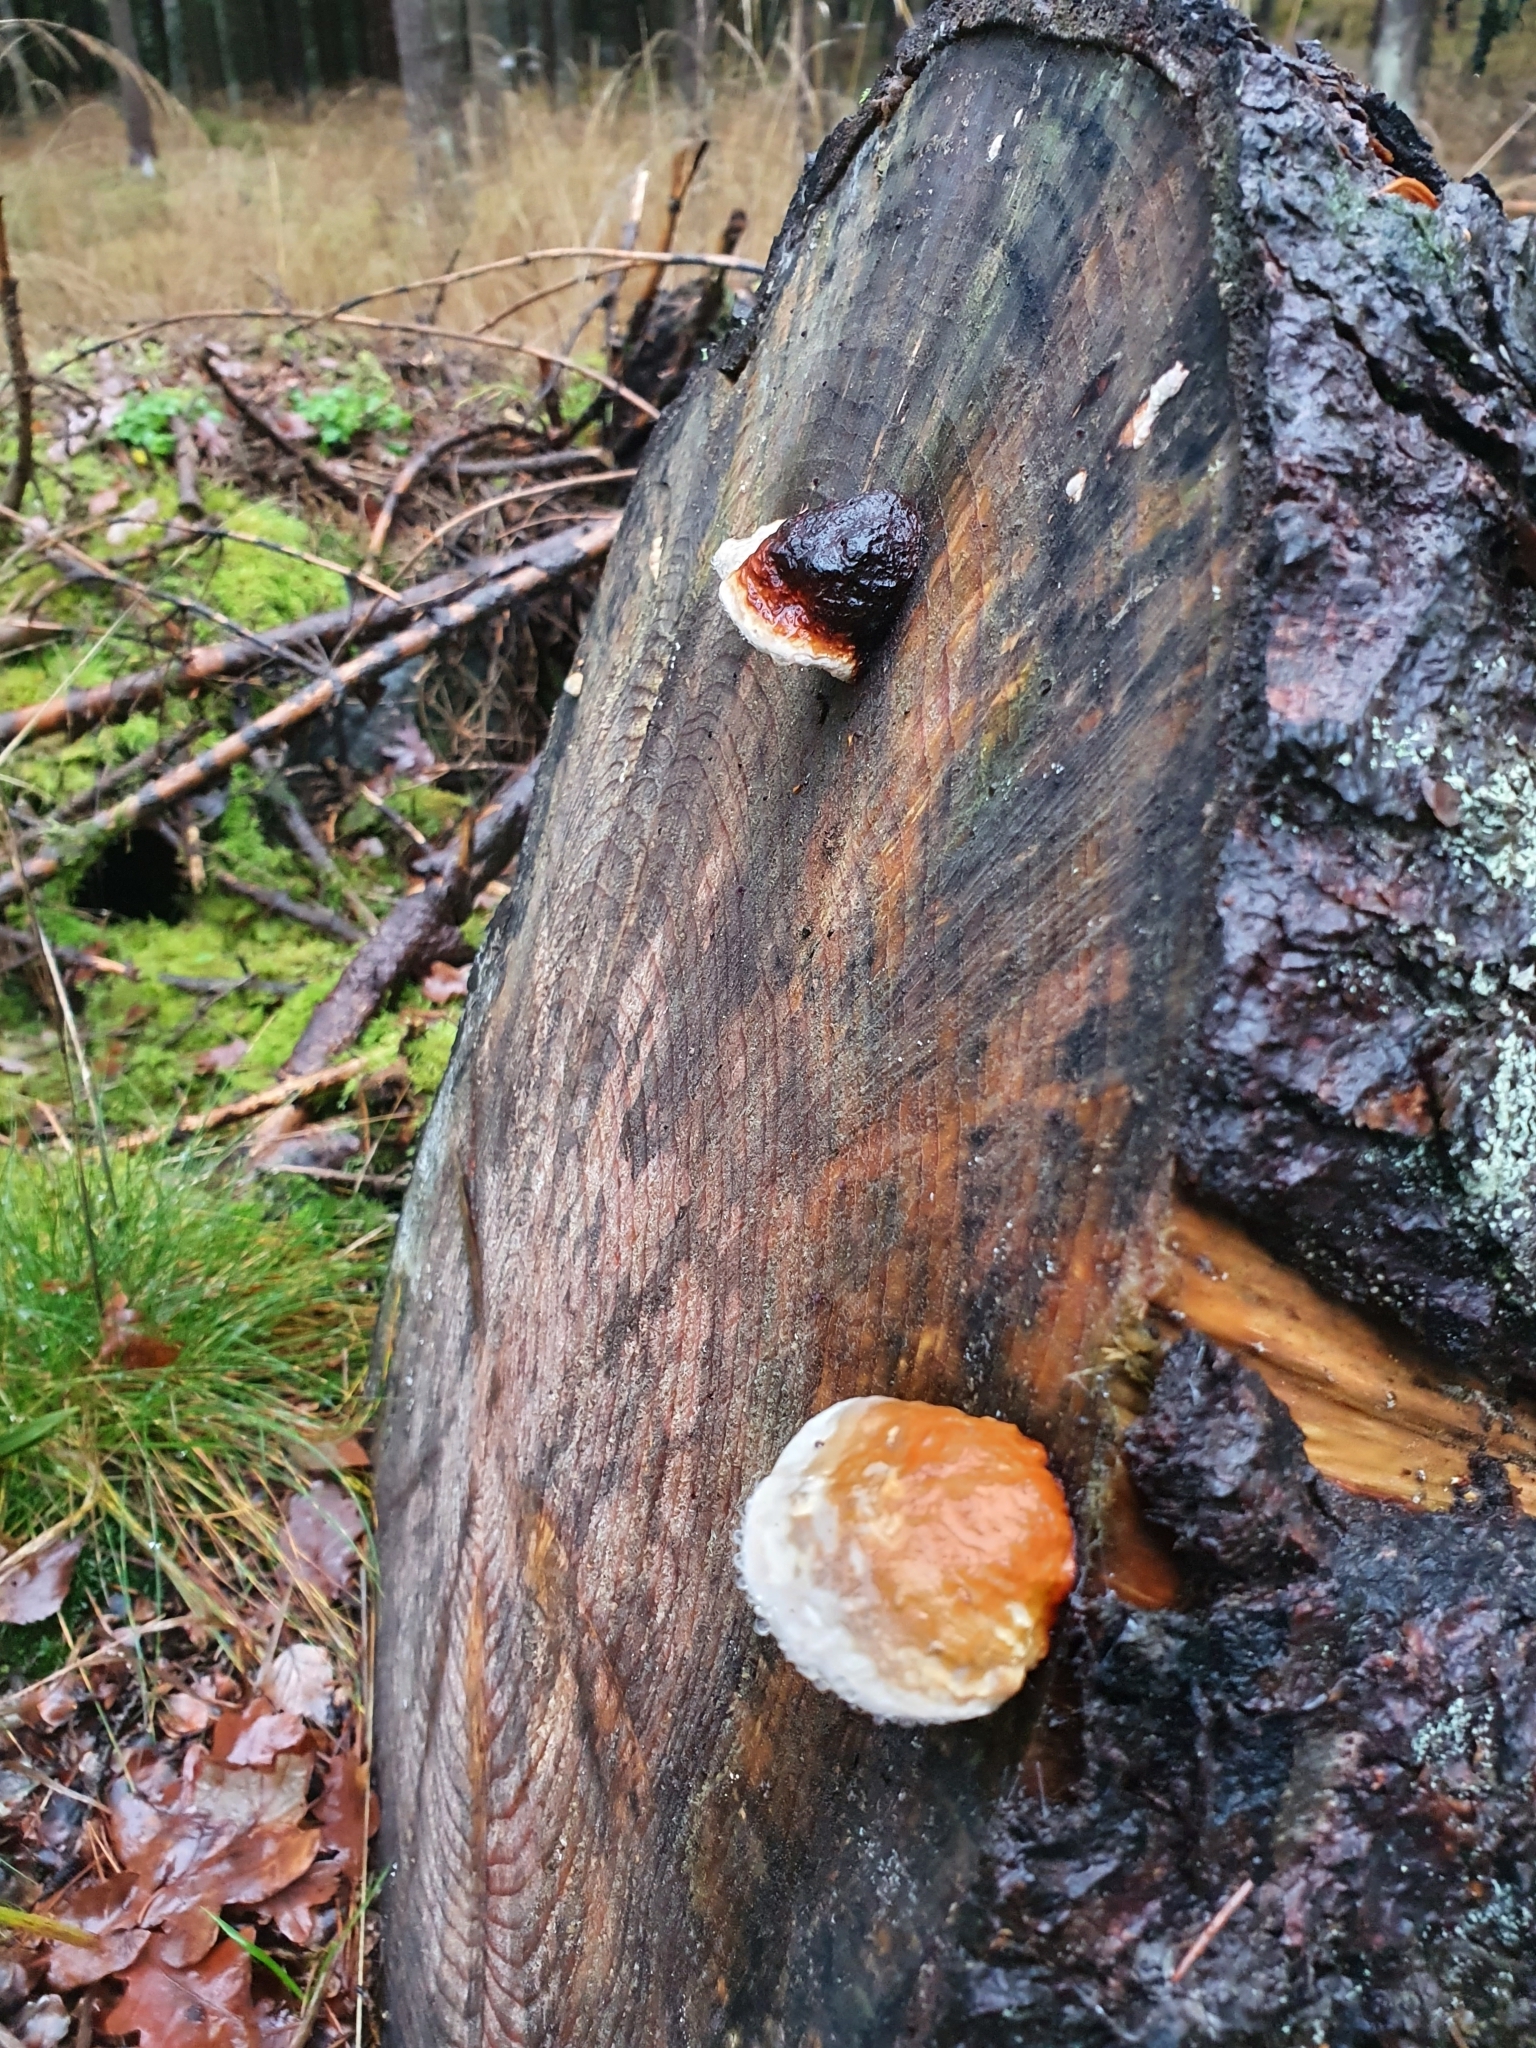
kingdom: Fungi
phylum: Basidiomycota
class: Agaricomycetes
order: Polyporales
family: Fomitopsidaceae
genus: Fomitopsis
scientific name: Fomitopsis pinicola
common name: Red-belted bracket
